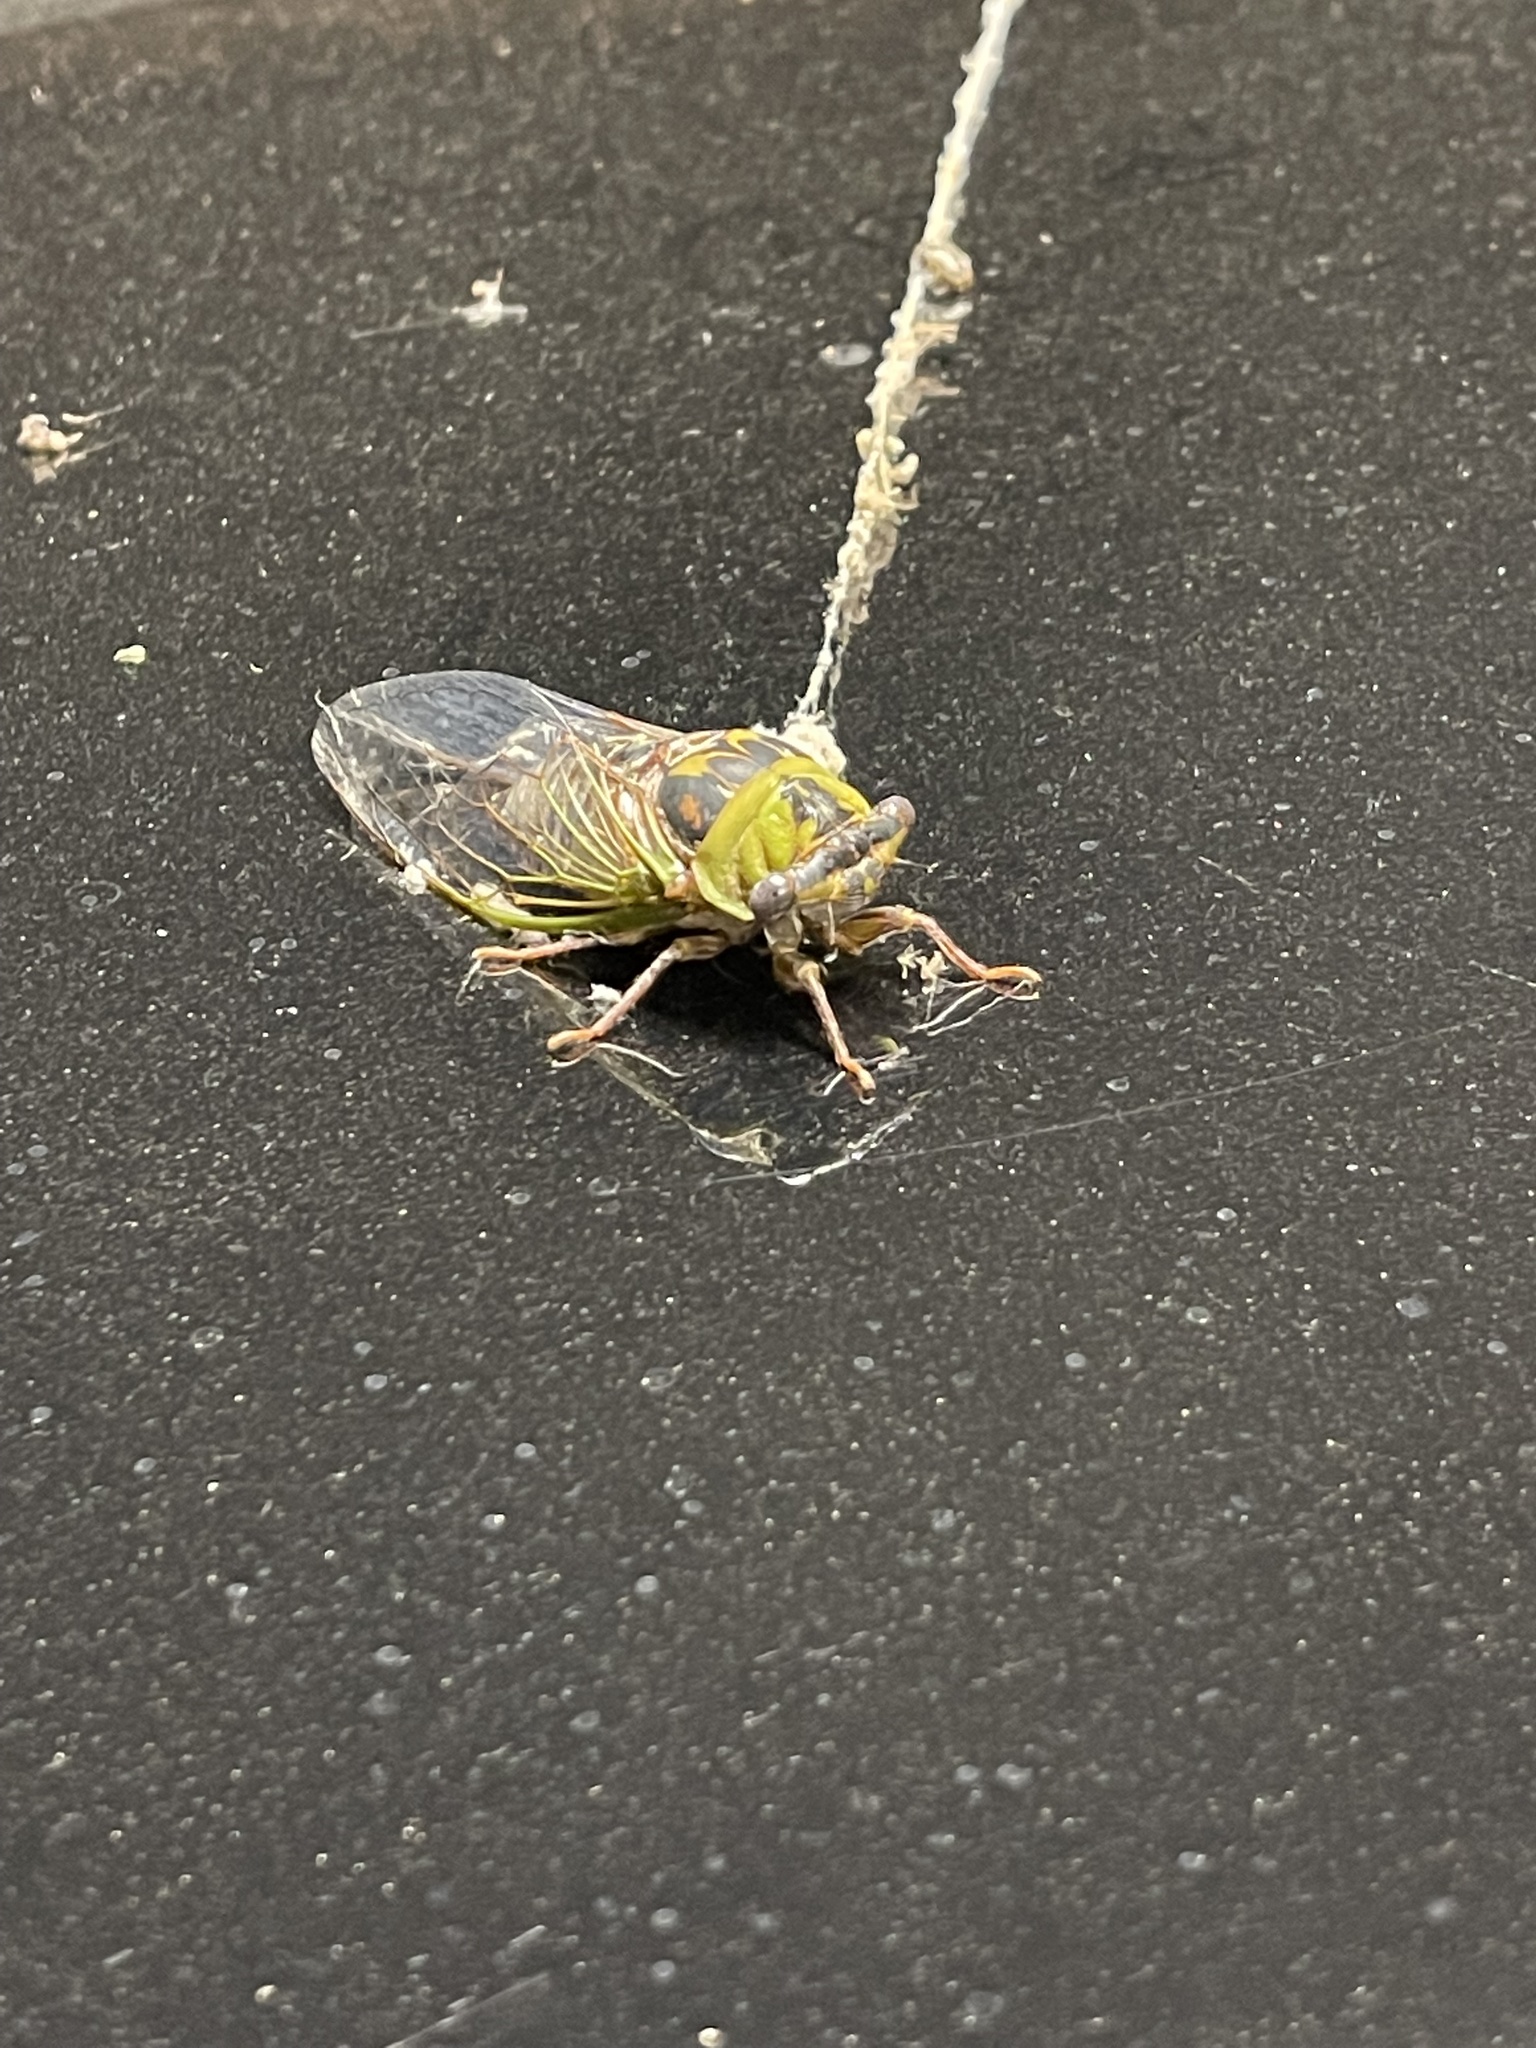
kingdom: Animalia
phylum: Arthropoda
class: Insecta
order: Hemiptera
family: Cicadidae
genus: Megatibicen
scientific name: Megatibicen pronotalis
